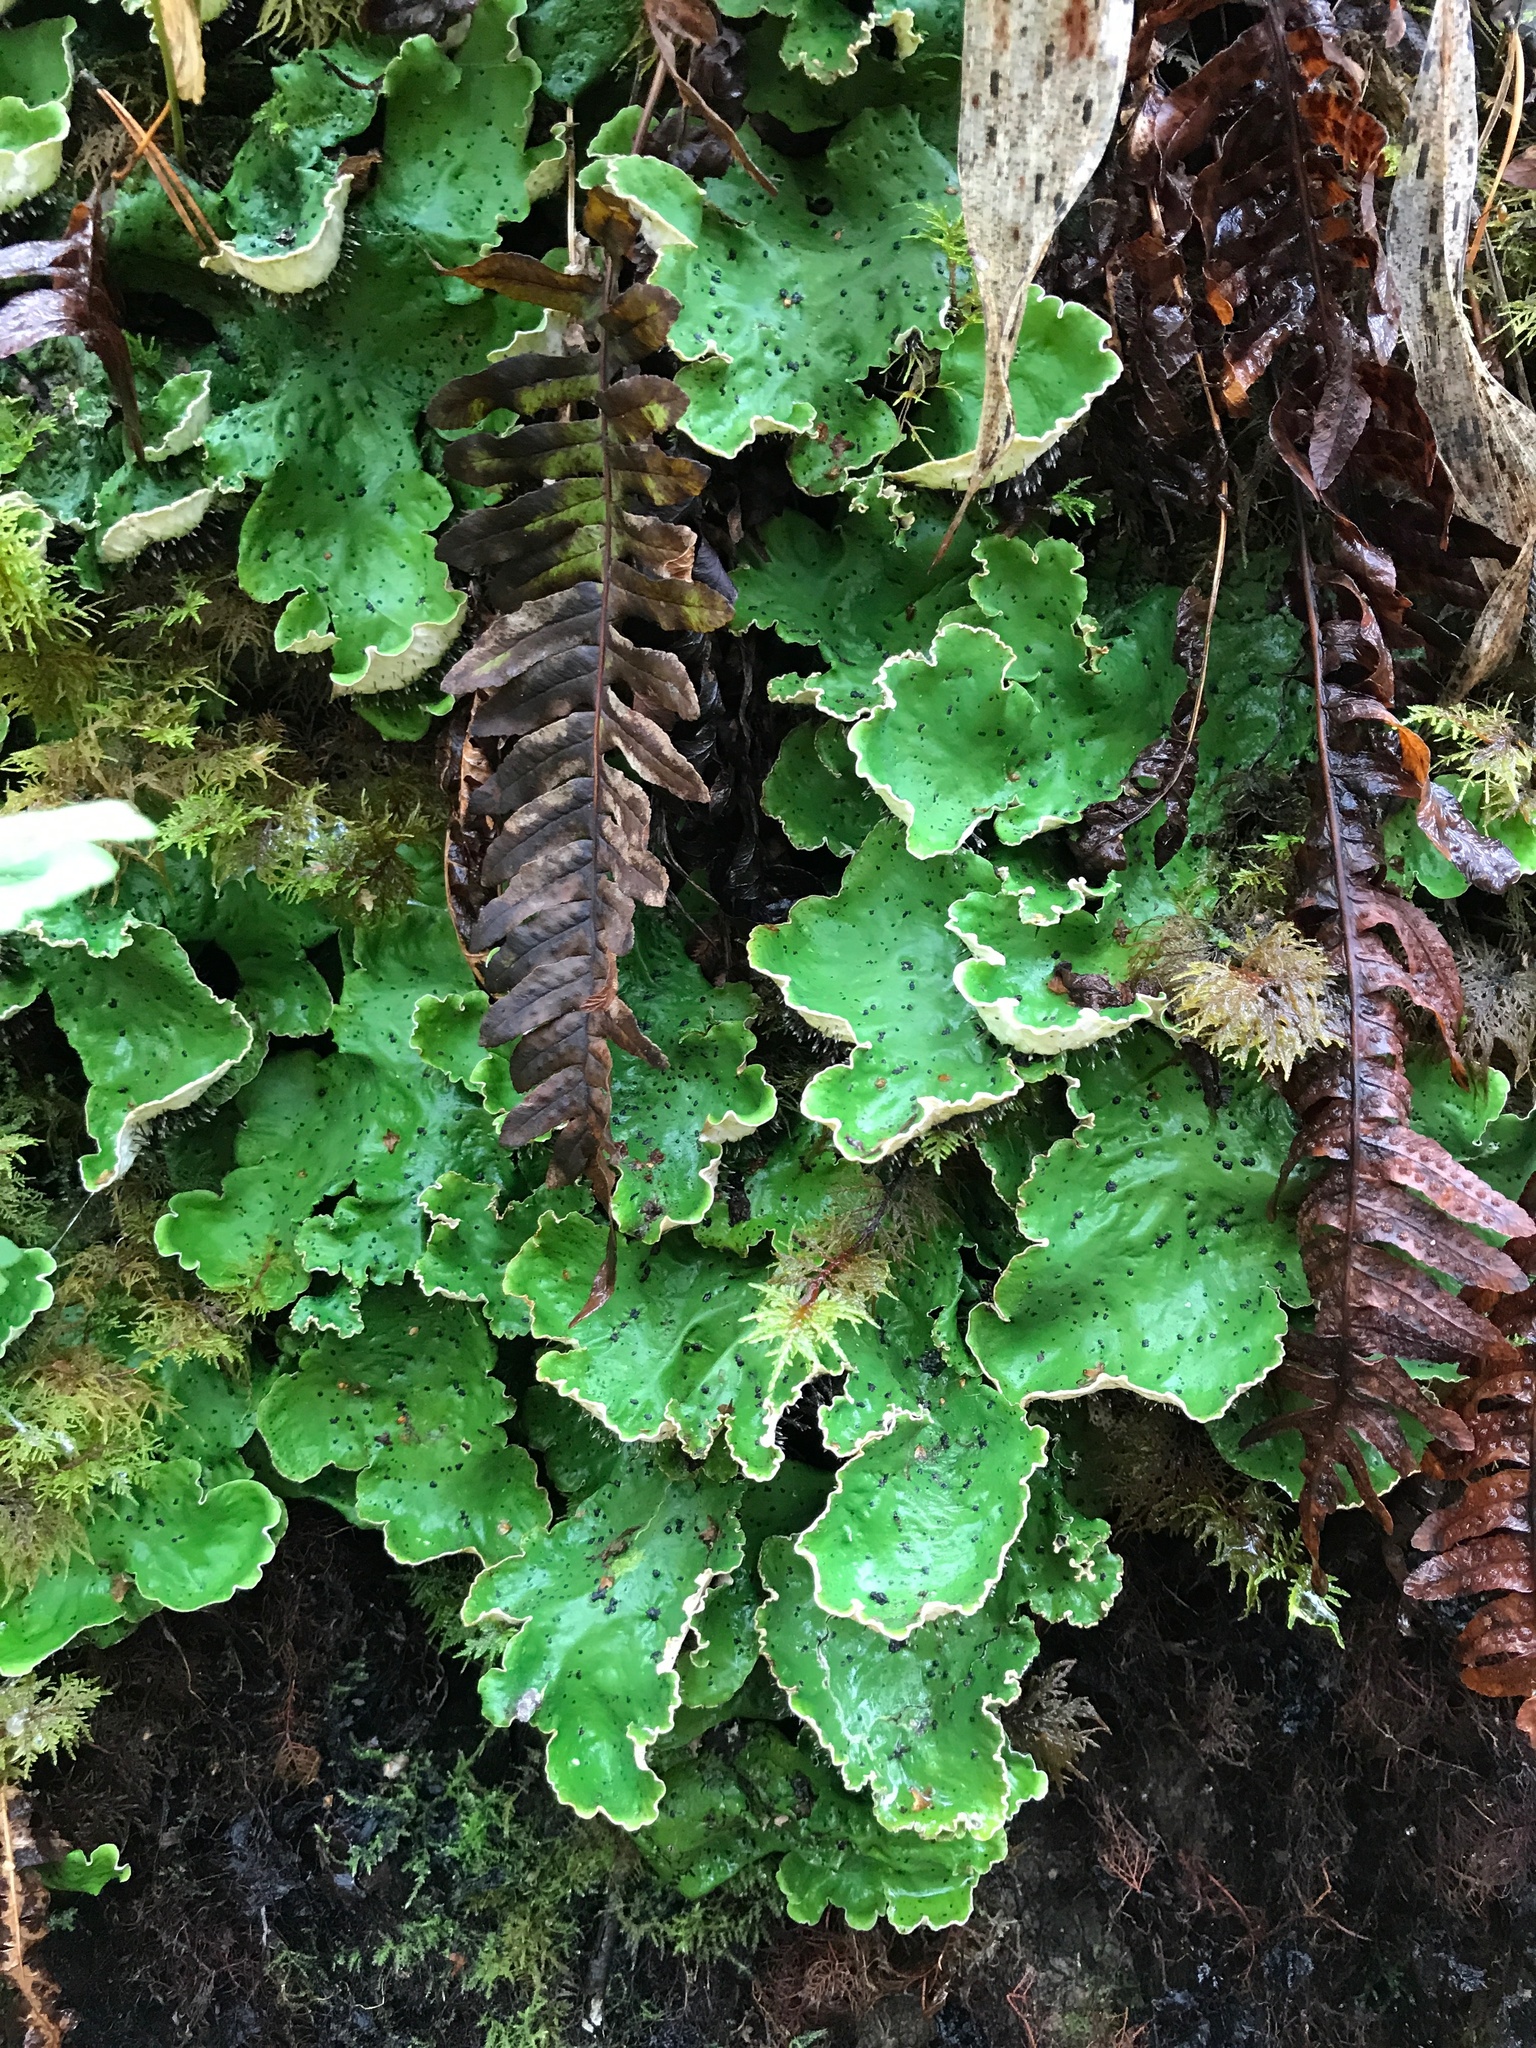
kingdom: Fungi
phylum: Ascomycota
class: Lecanoromycetes
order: Peltigerales
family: Peltigeraceae
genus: Peltigera
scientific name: Peltigera aphthosa
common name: Common freckle pelt lichen
